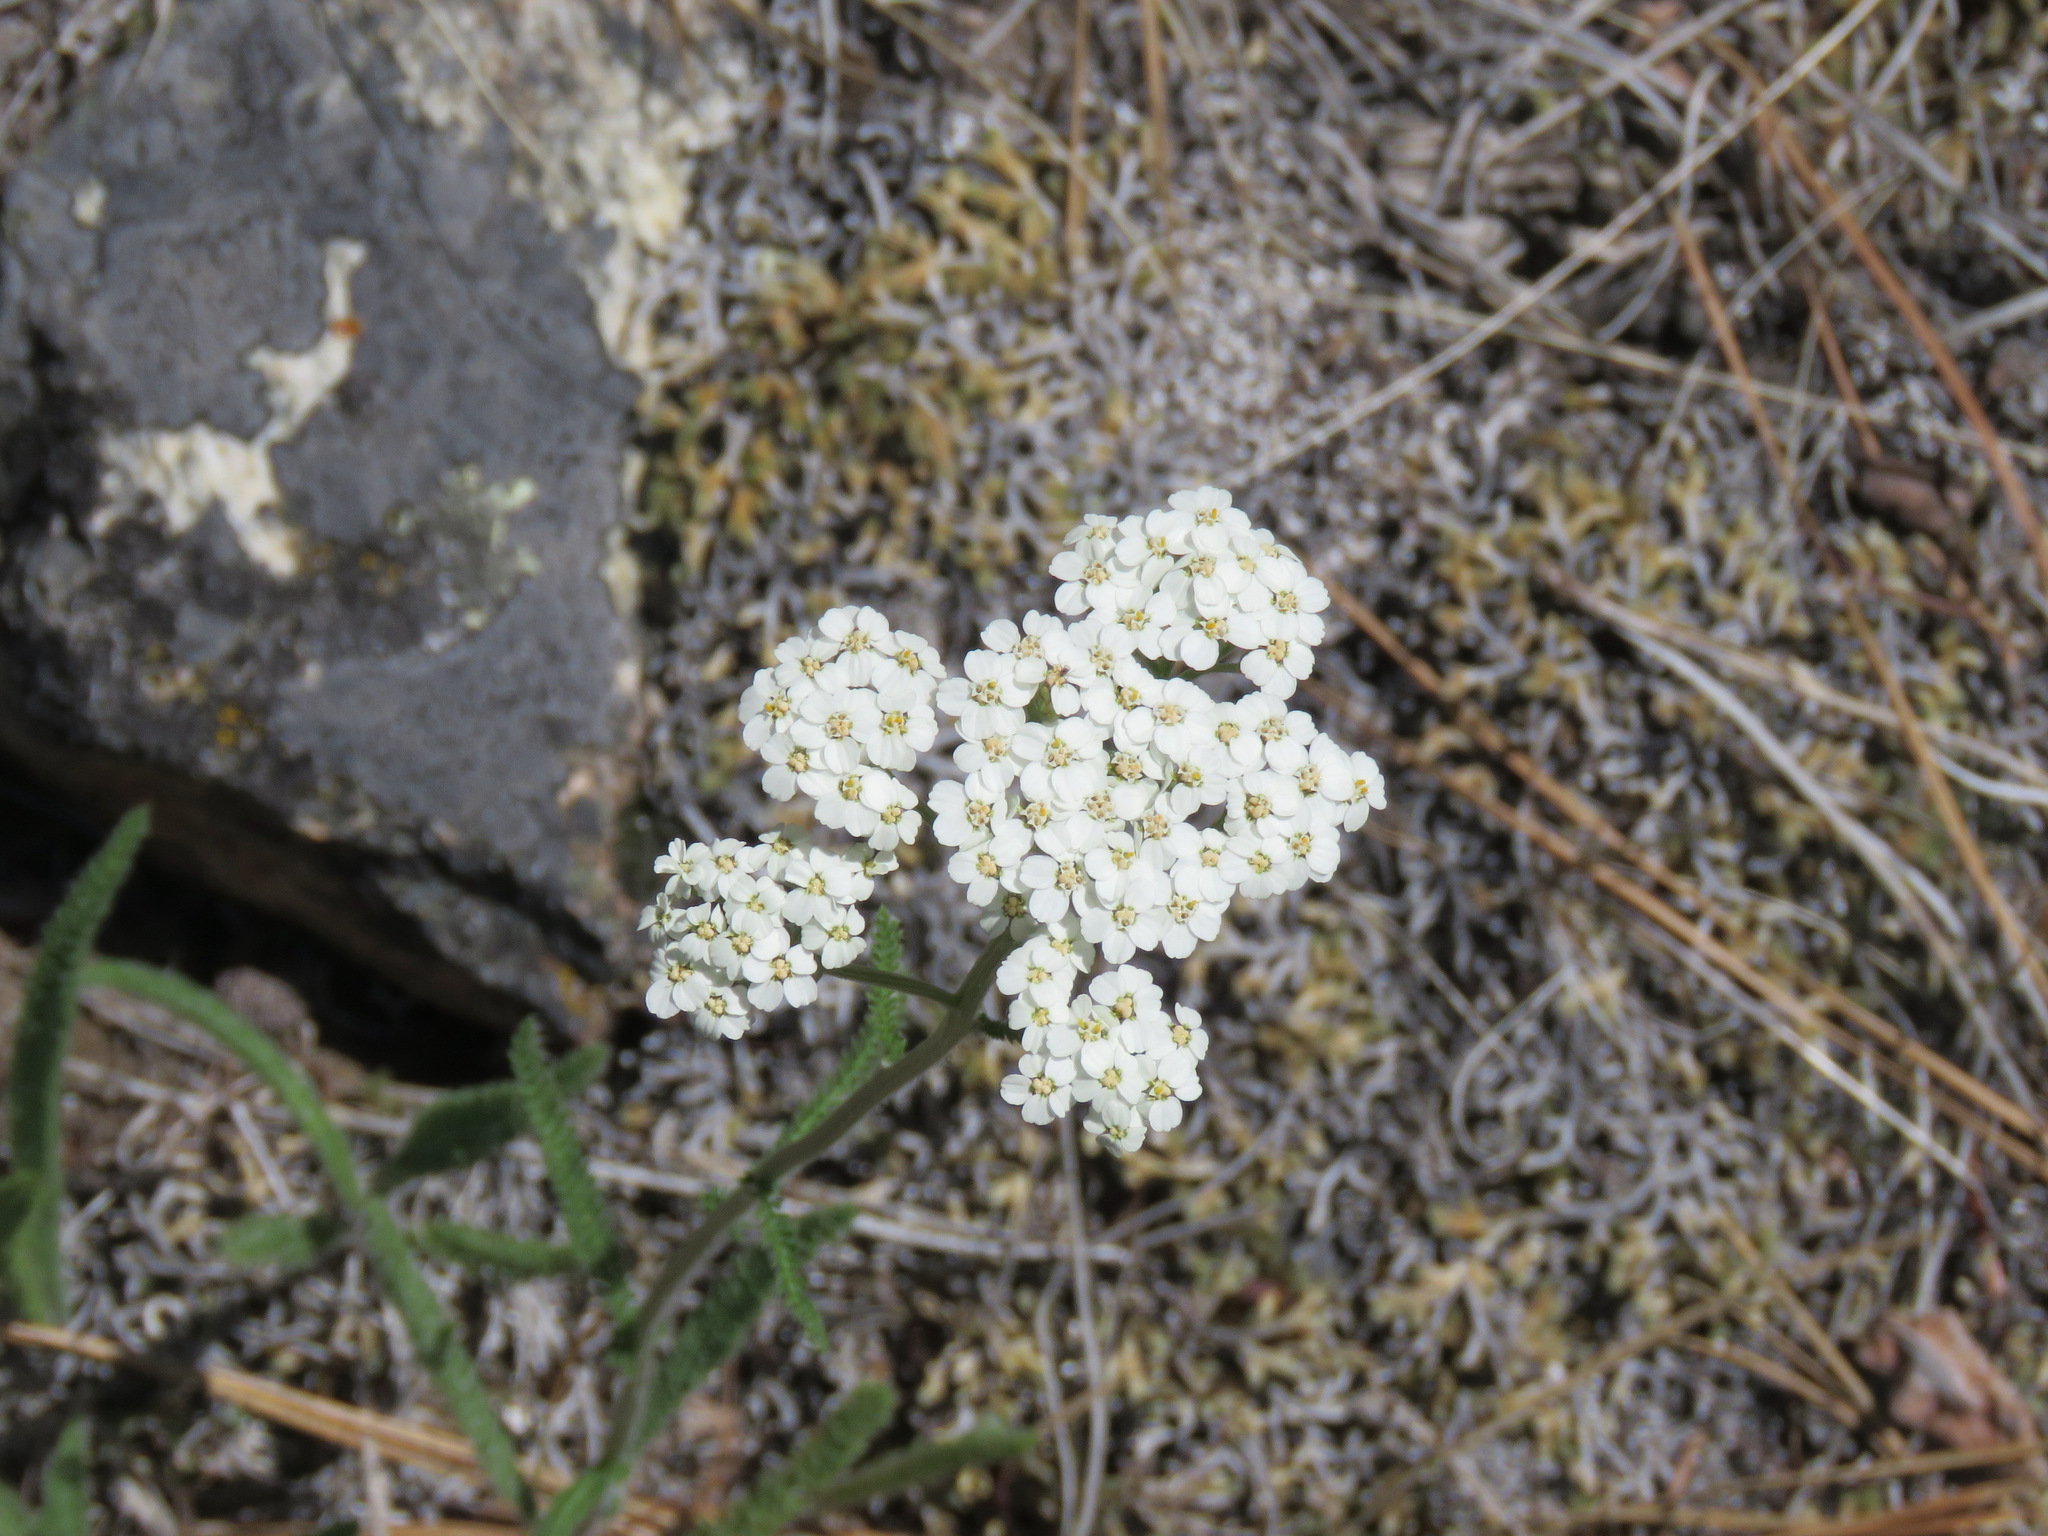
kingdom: Plantae
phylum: Tracheophyta
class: Magnoliopsida
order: Asterales
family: Asteraceae
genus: Achillea
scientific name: Achillea millefolium
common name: Yarrow
